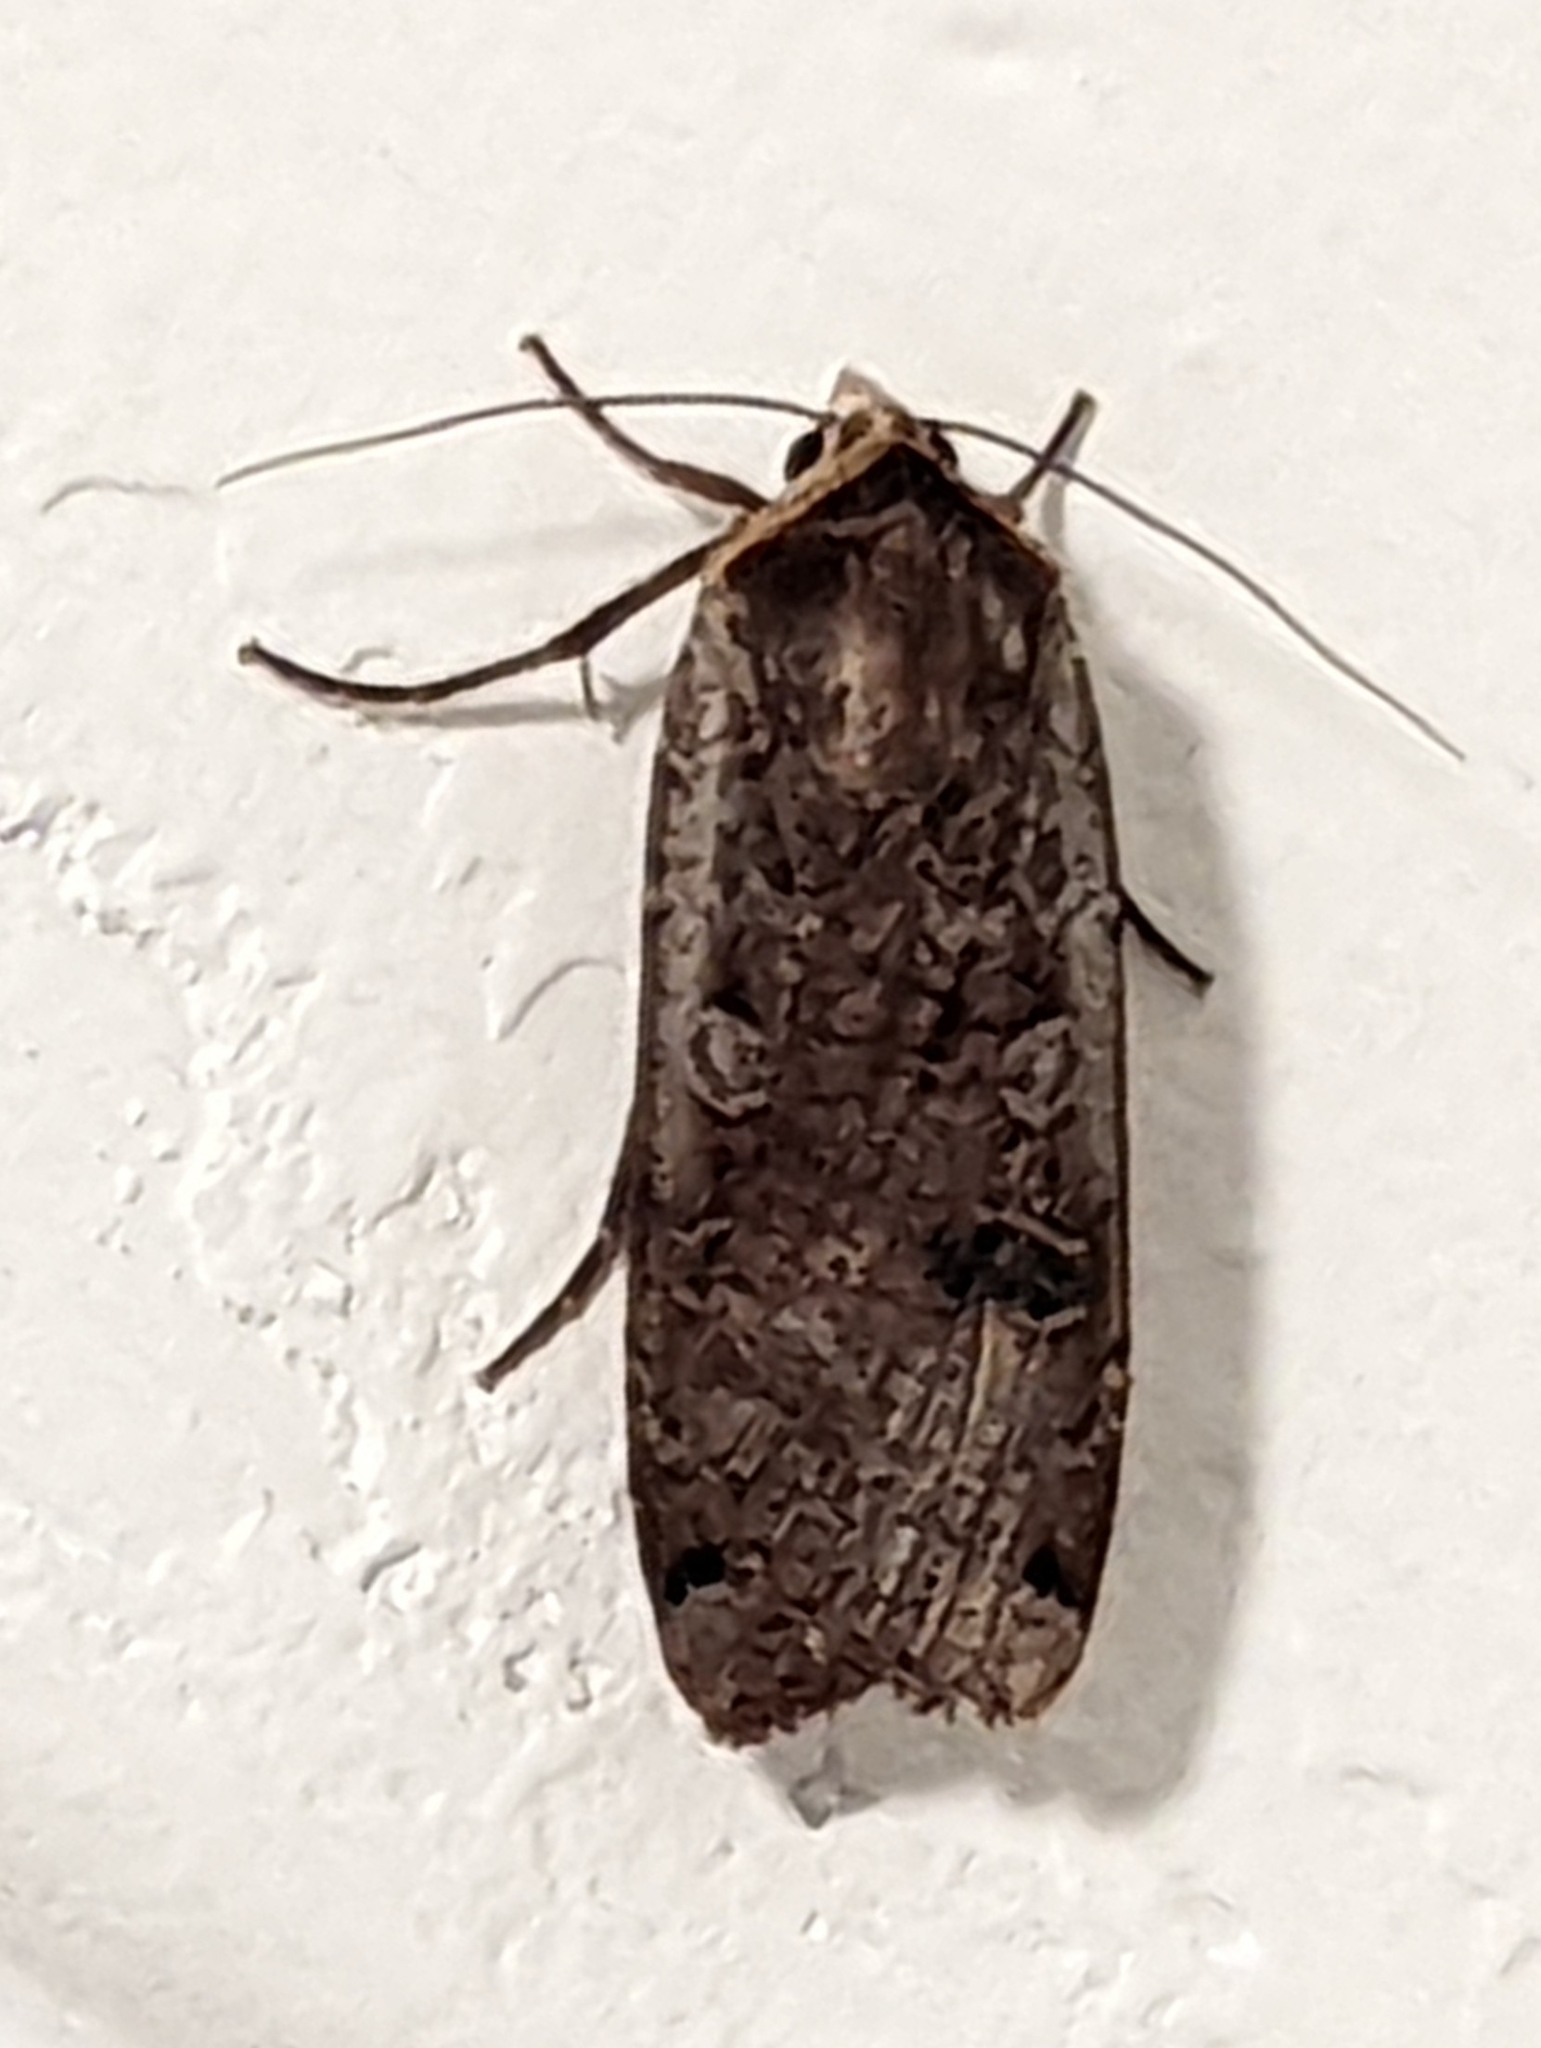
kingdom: Animalia
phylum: Arthropoda
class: Insecta
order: Lepidoptera
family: Noctuidae
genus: Noctua
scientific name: Noctua pronuba
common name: Large yellow underwing
